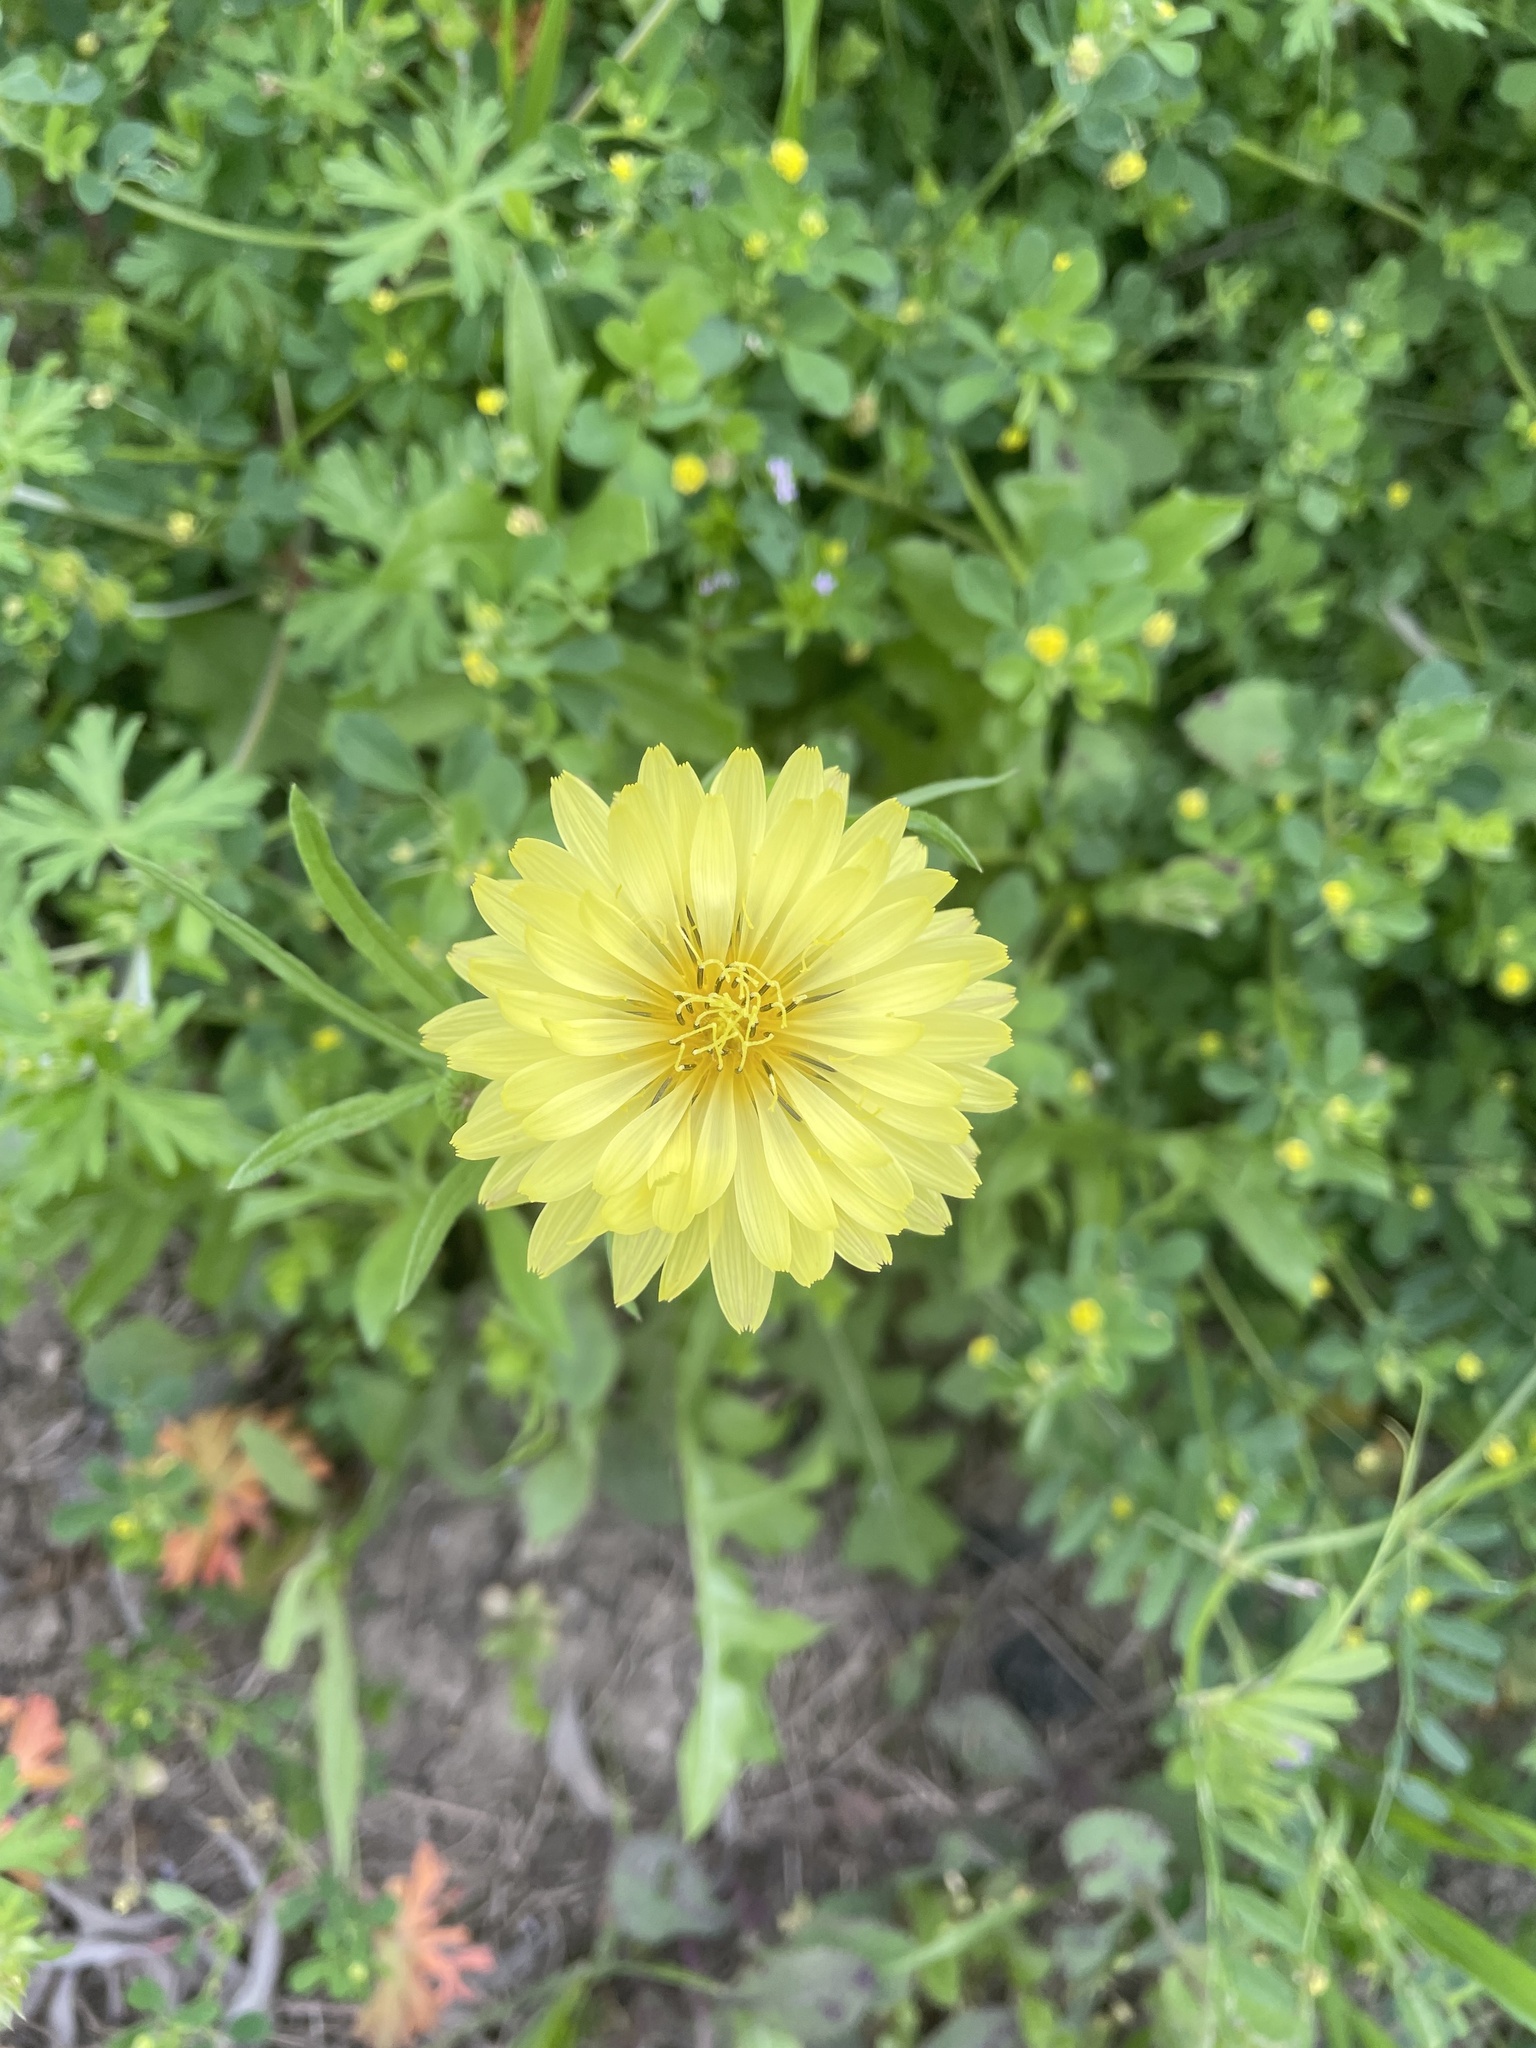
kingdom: Plantae
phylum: Tracheophyta
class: Magnoliopsida
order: Asterales
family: Asteraceae
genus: Pyrrhopappus
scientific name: Pyrrhopappus pauciflorus
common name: Texas false dandelion
